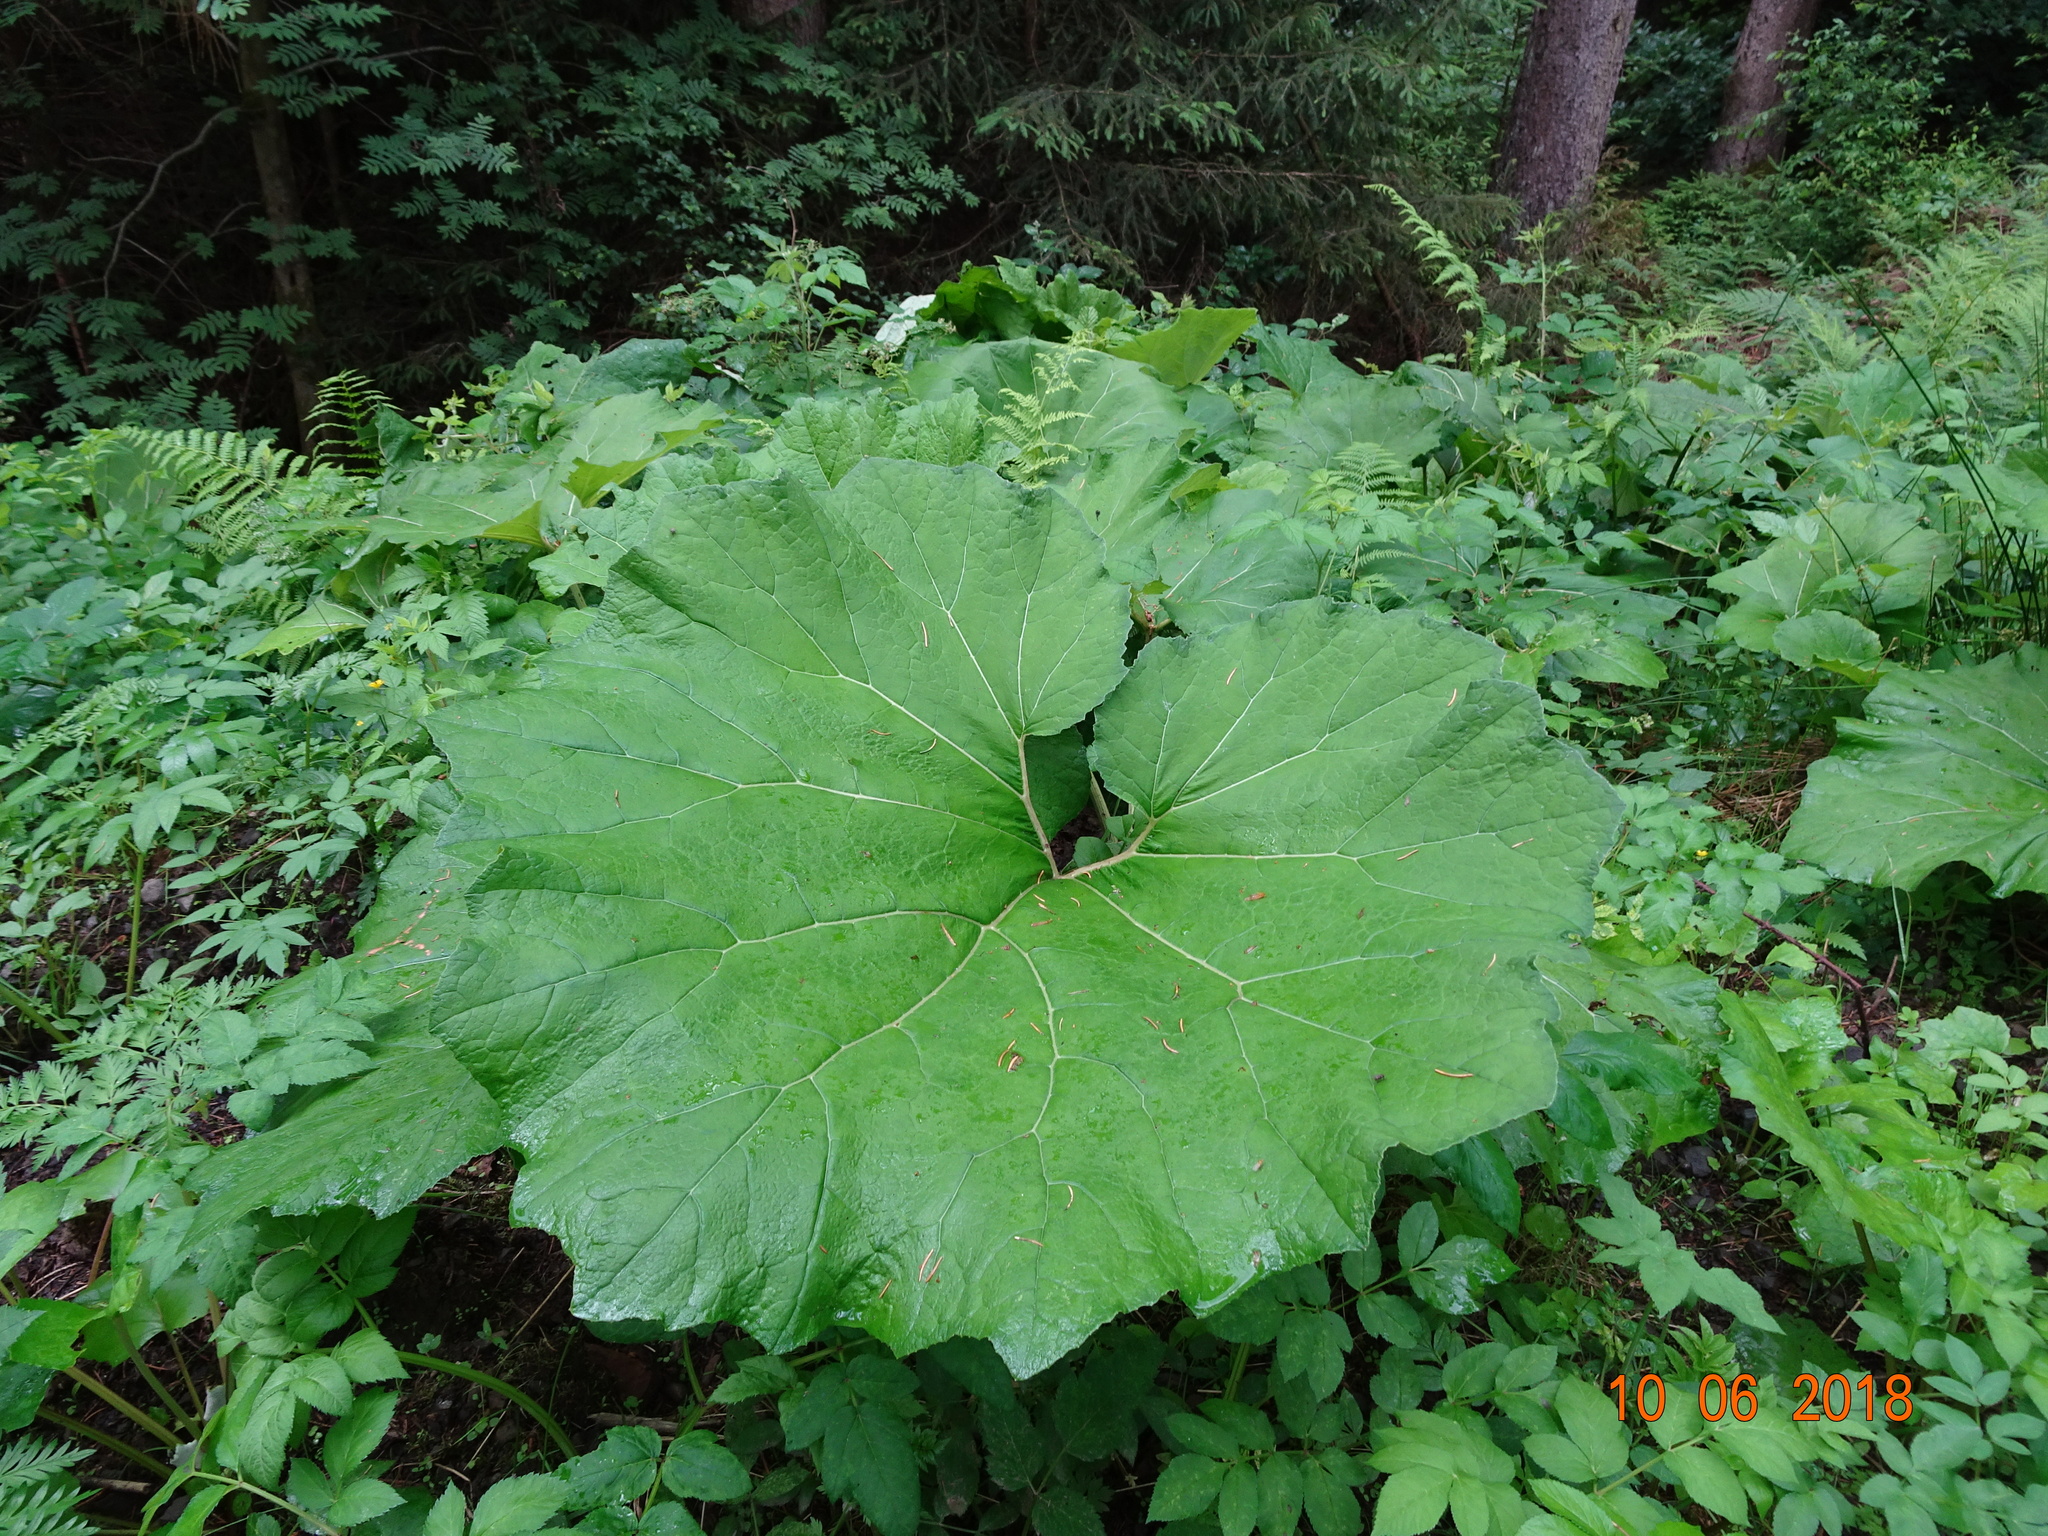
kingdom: Plantae
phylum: Tracheophyta
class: Magnoliopsida
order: Asterales
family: Asteraceae
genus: Petasites
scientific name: Petasites hybridus
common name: Butterbur
